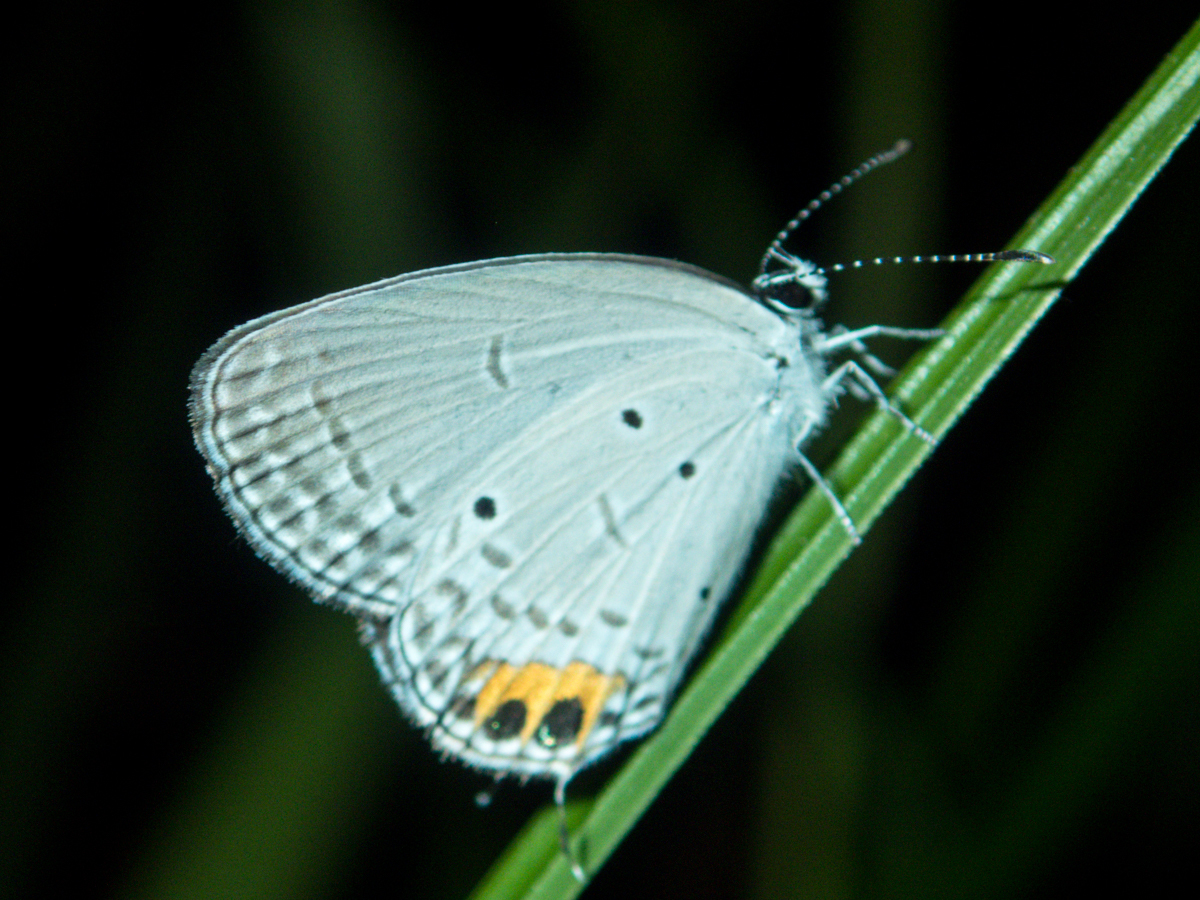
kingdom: Animalia
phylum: Arthropoda
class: Insecta
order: Lepidoptera
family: Lycaenidae
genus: Everes
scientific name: Everes lacturnus
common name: Orange-tipped pea-blue
